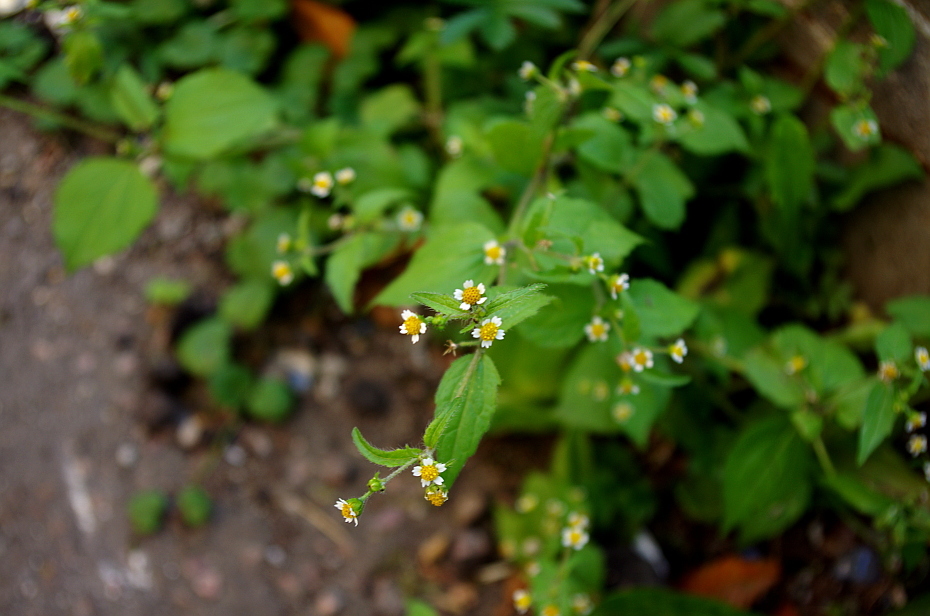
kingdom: Plantae
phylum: Tracheophyta
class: Magnoliopsida
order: Asterales
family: Asteraceae
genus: Galinsoga
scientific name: Galinsoga quadriradiata
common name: Shaggy soldier
